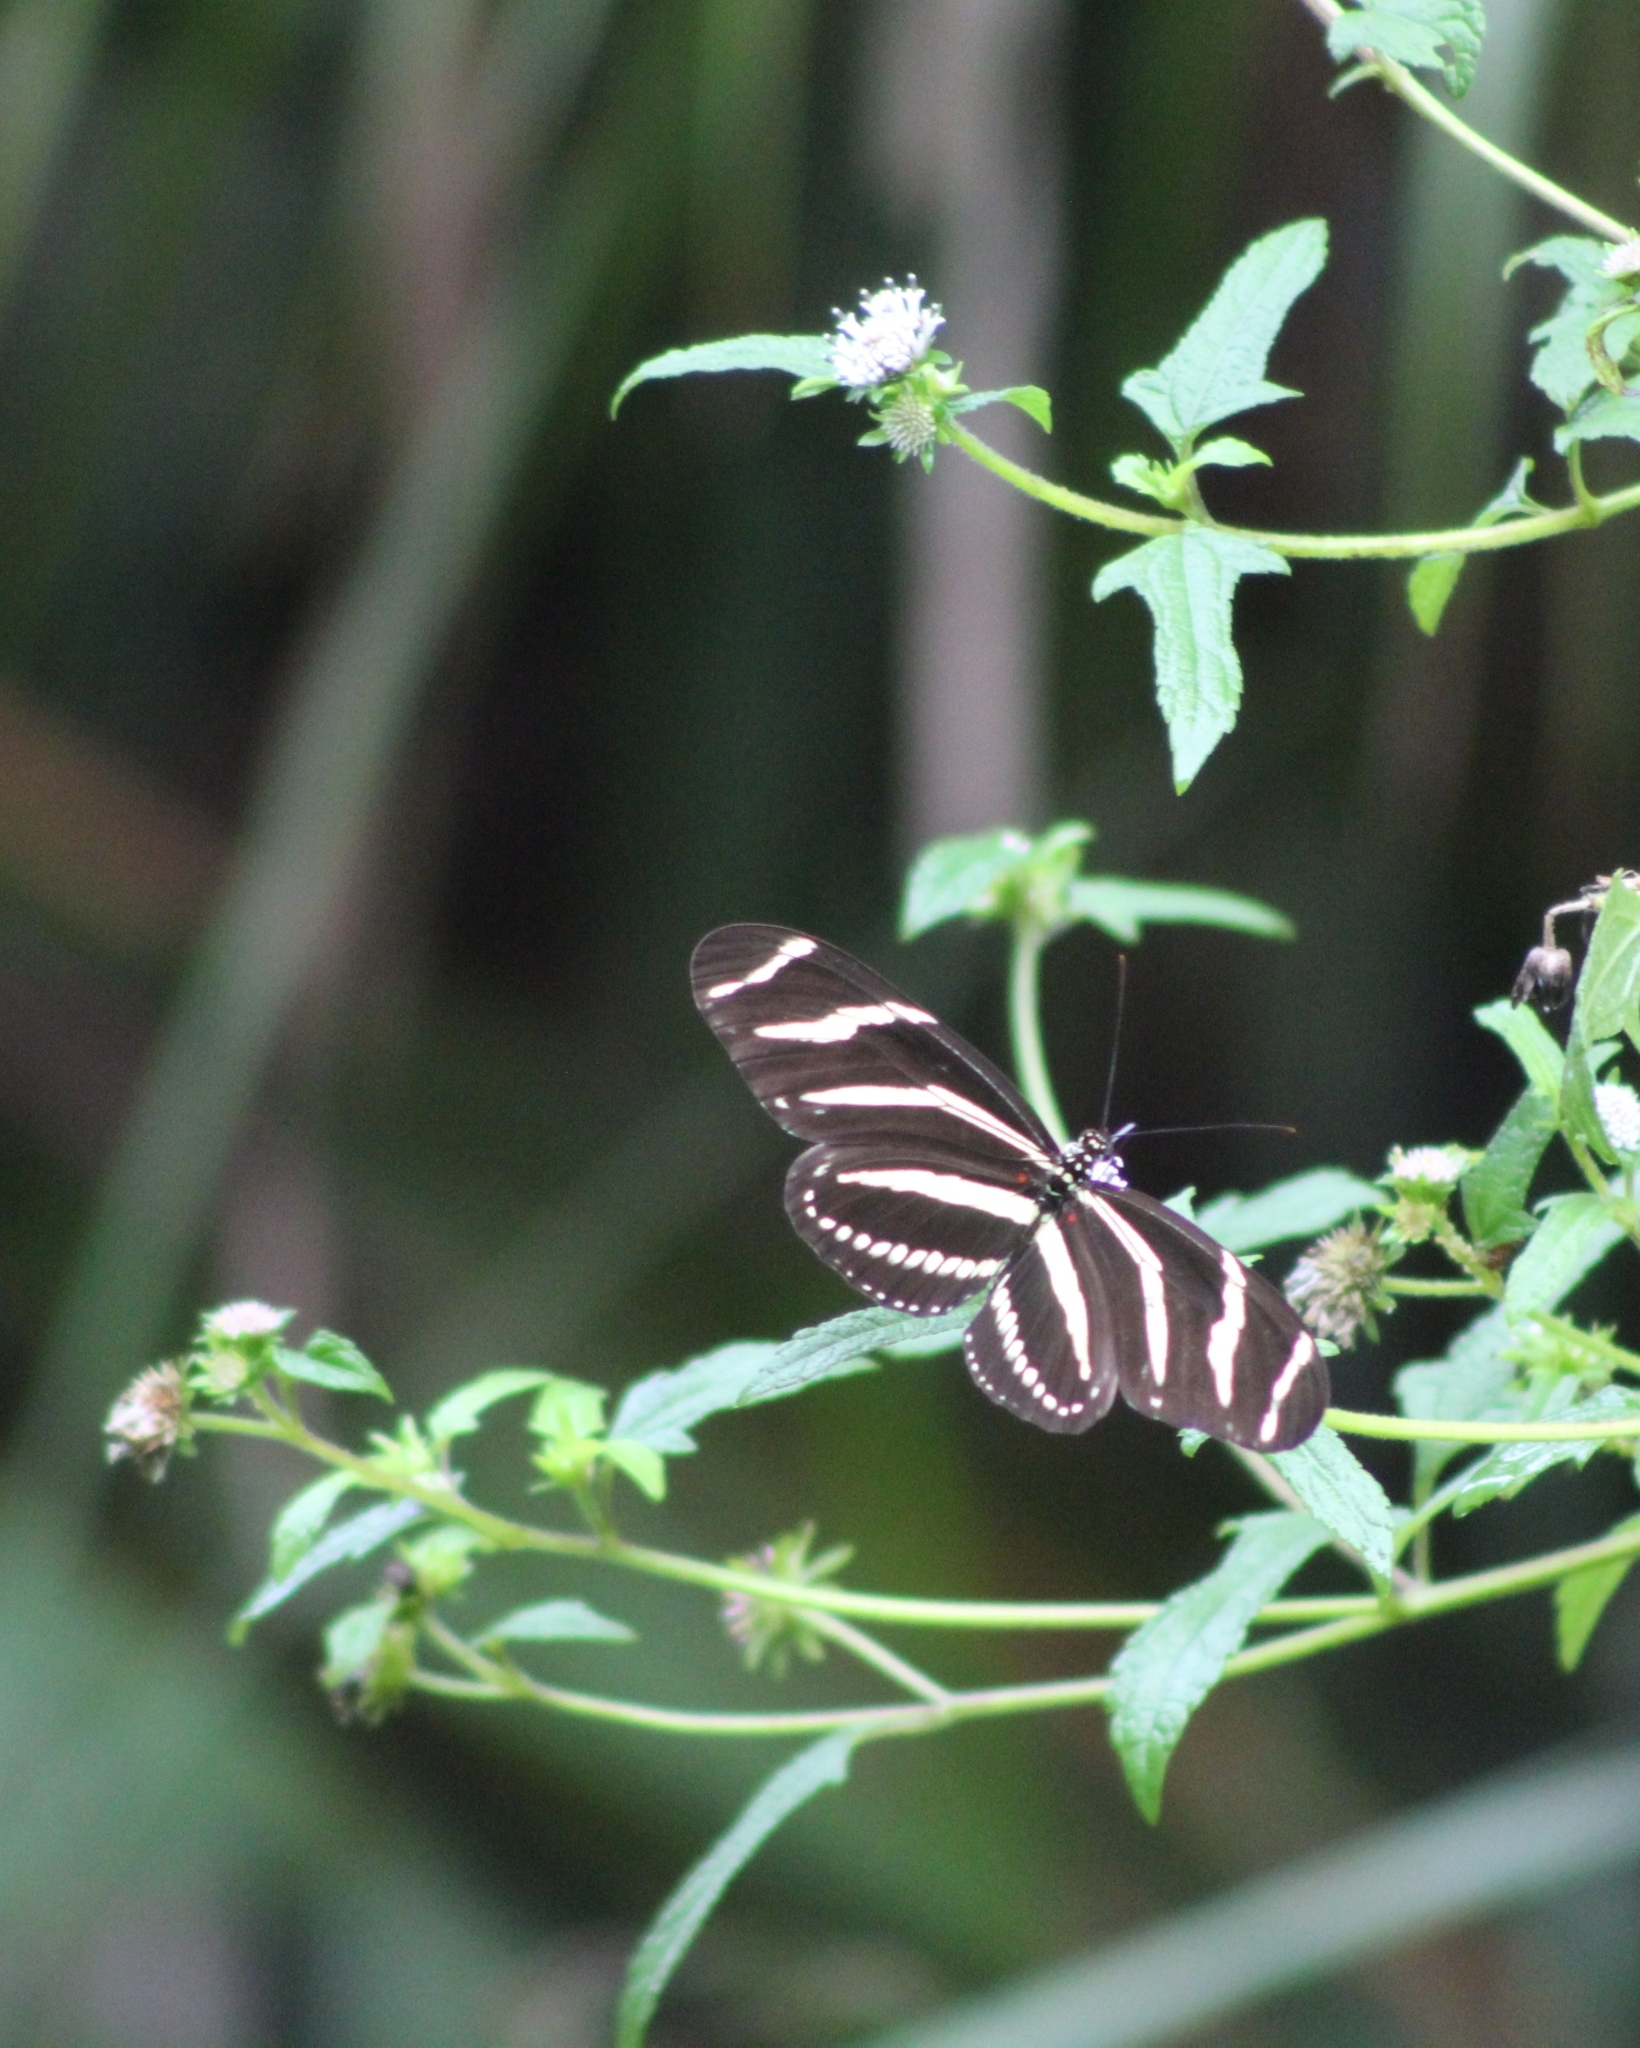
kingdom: Animalia
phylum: Arthropoda
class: Insecta
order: Lepidoptera
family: Nymphalidae
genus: Heliconius
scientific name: Heliconius charithonia
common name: Zebra long wing
